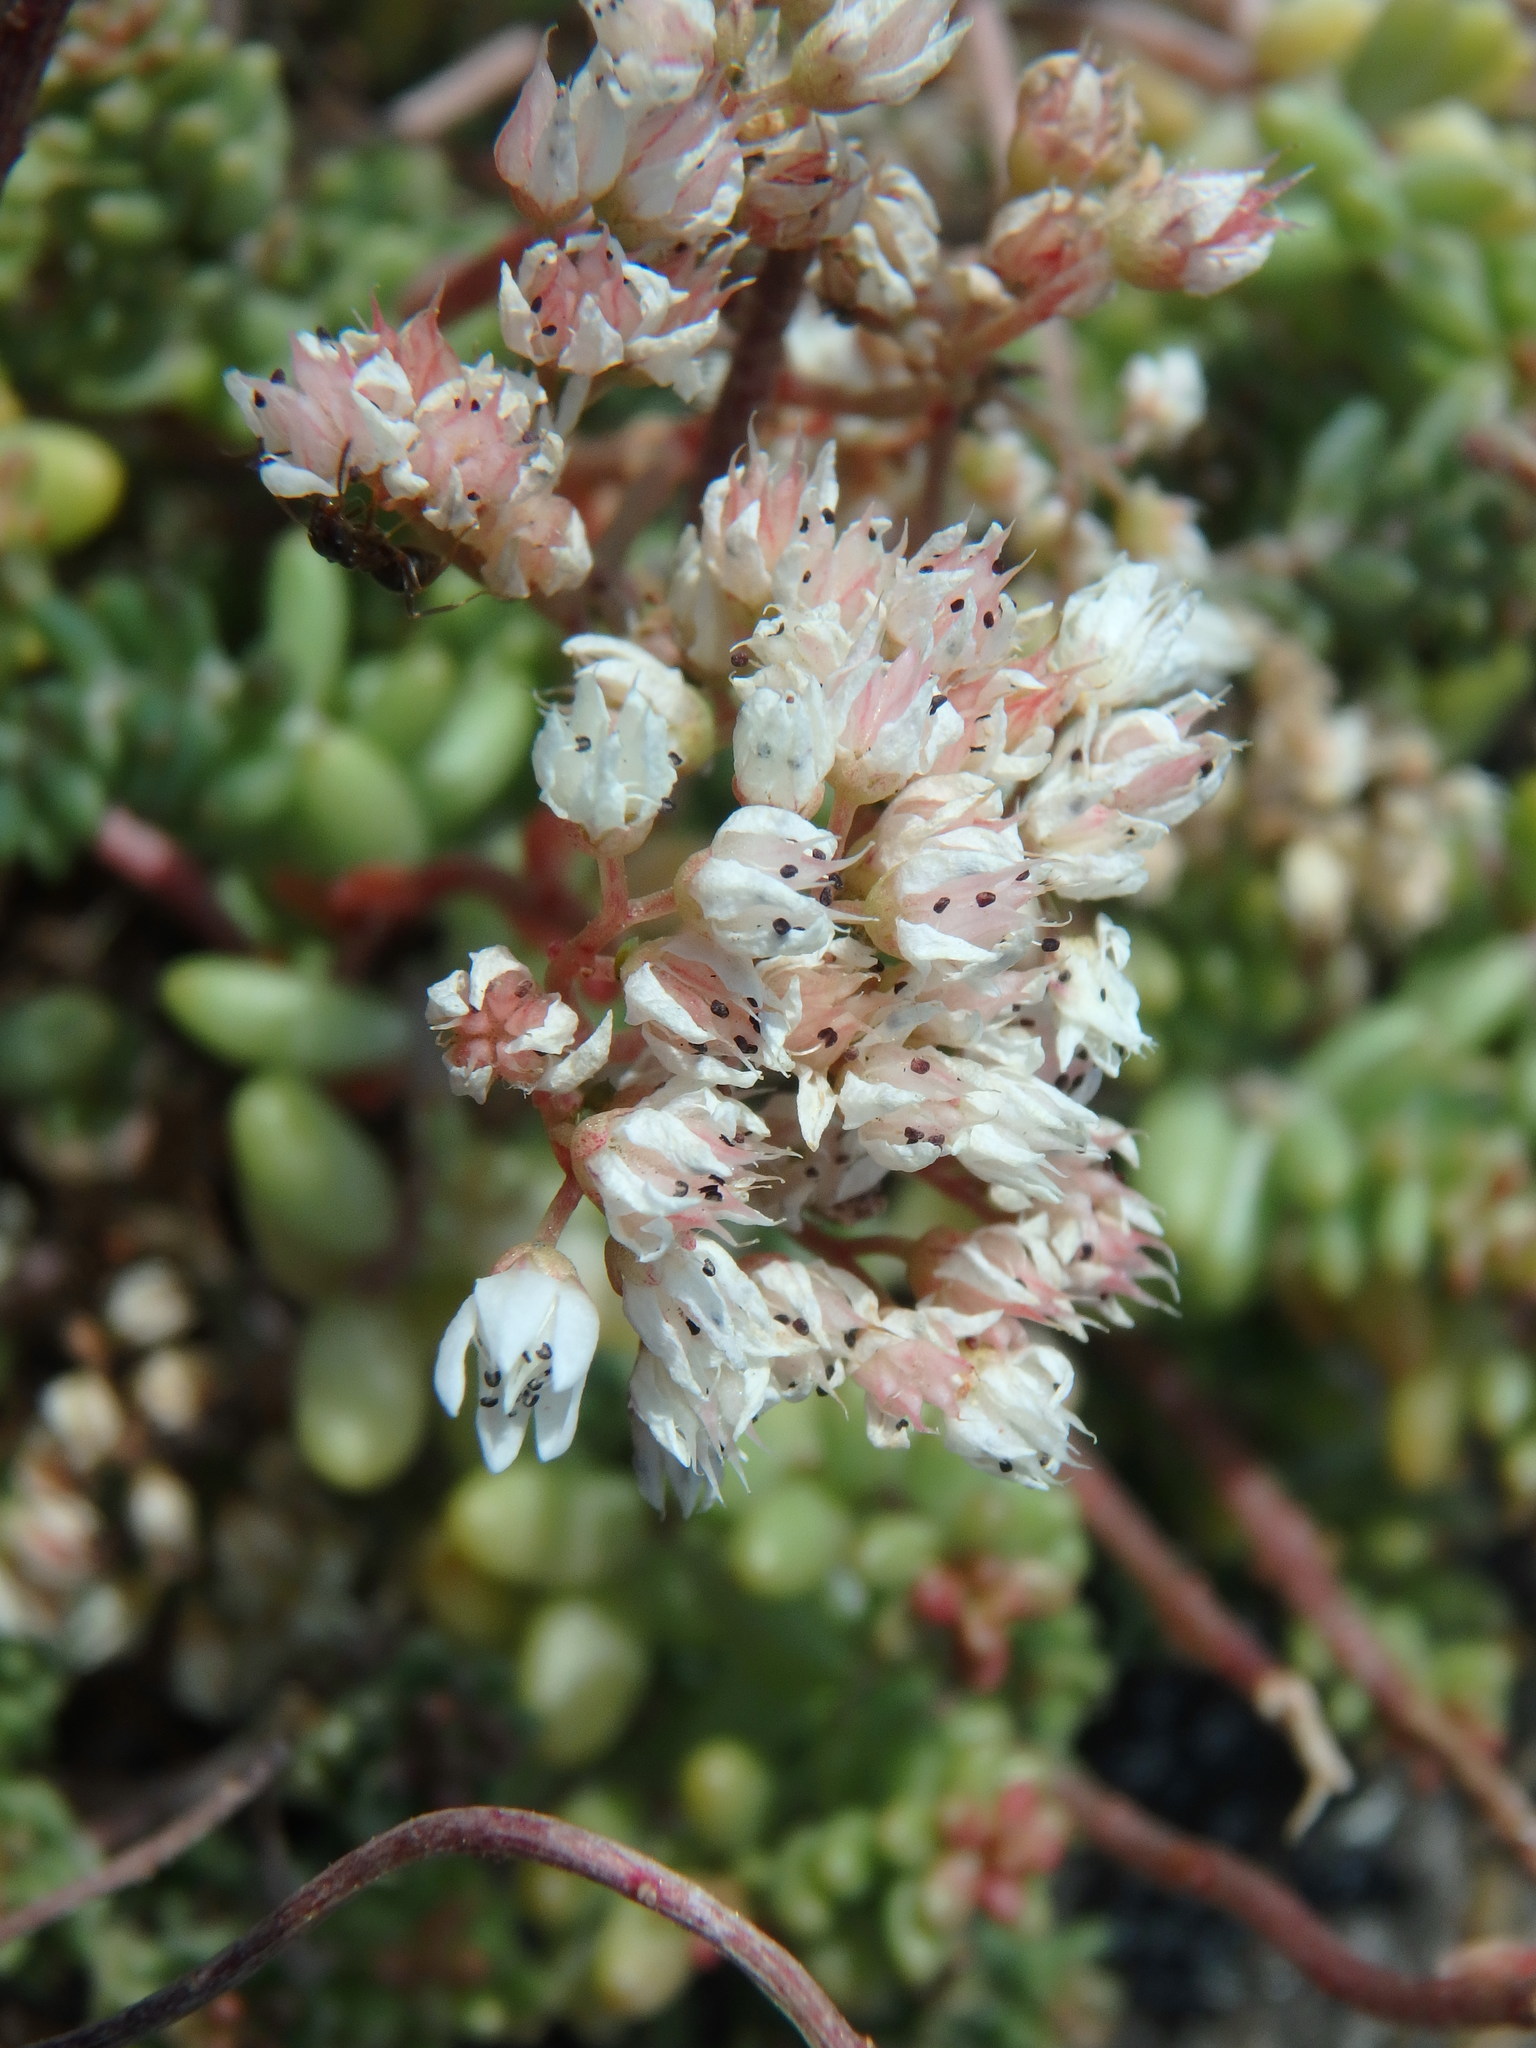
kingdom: Plantae
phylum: Tracheophyta
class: Magnoliopsida
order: Saxifragales
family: Crassulaceae
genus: Sedum
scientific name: Sedum album
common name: White stonecrop
